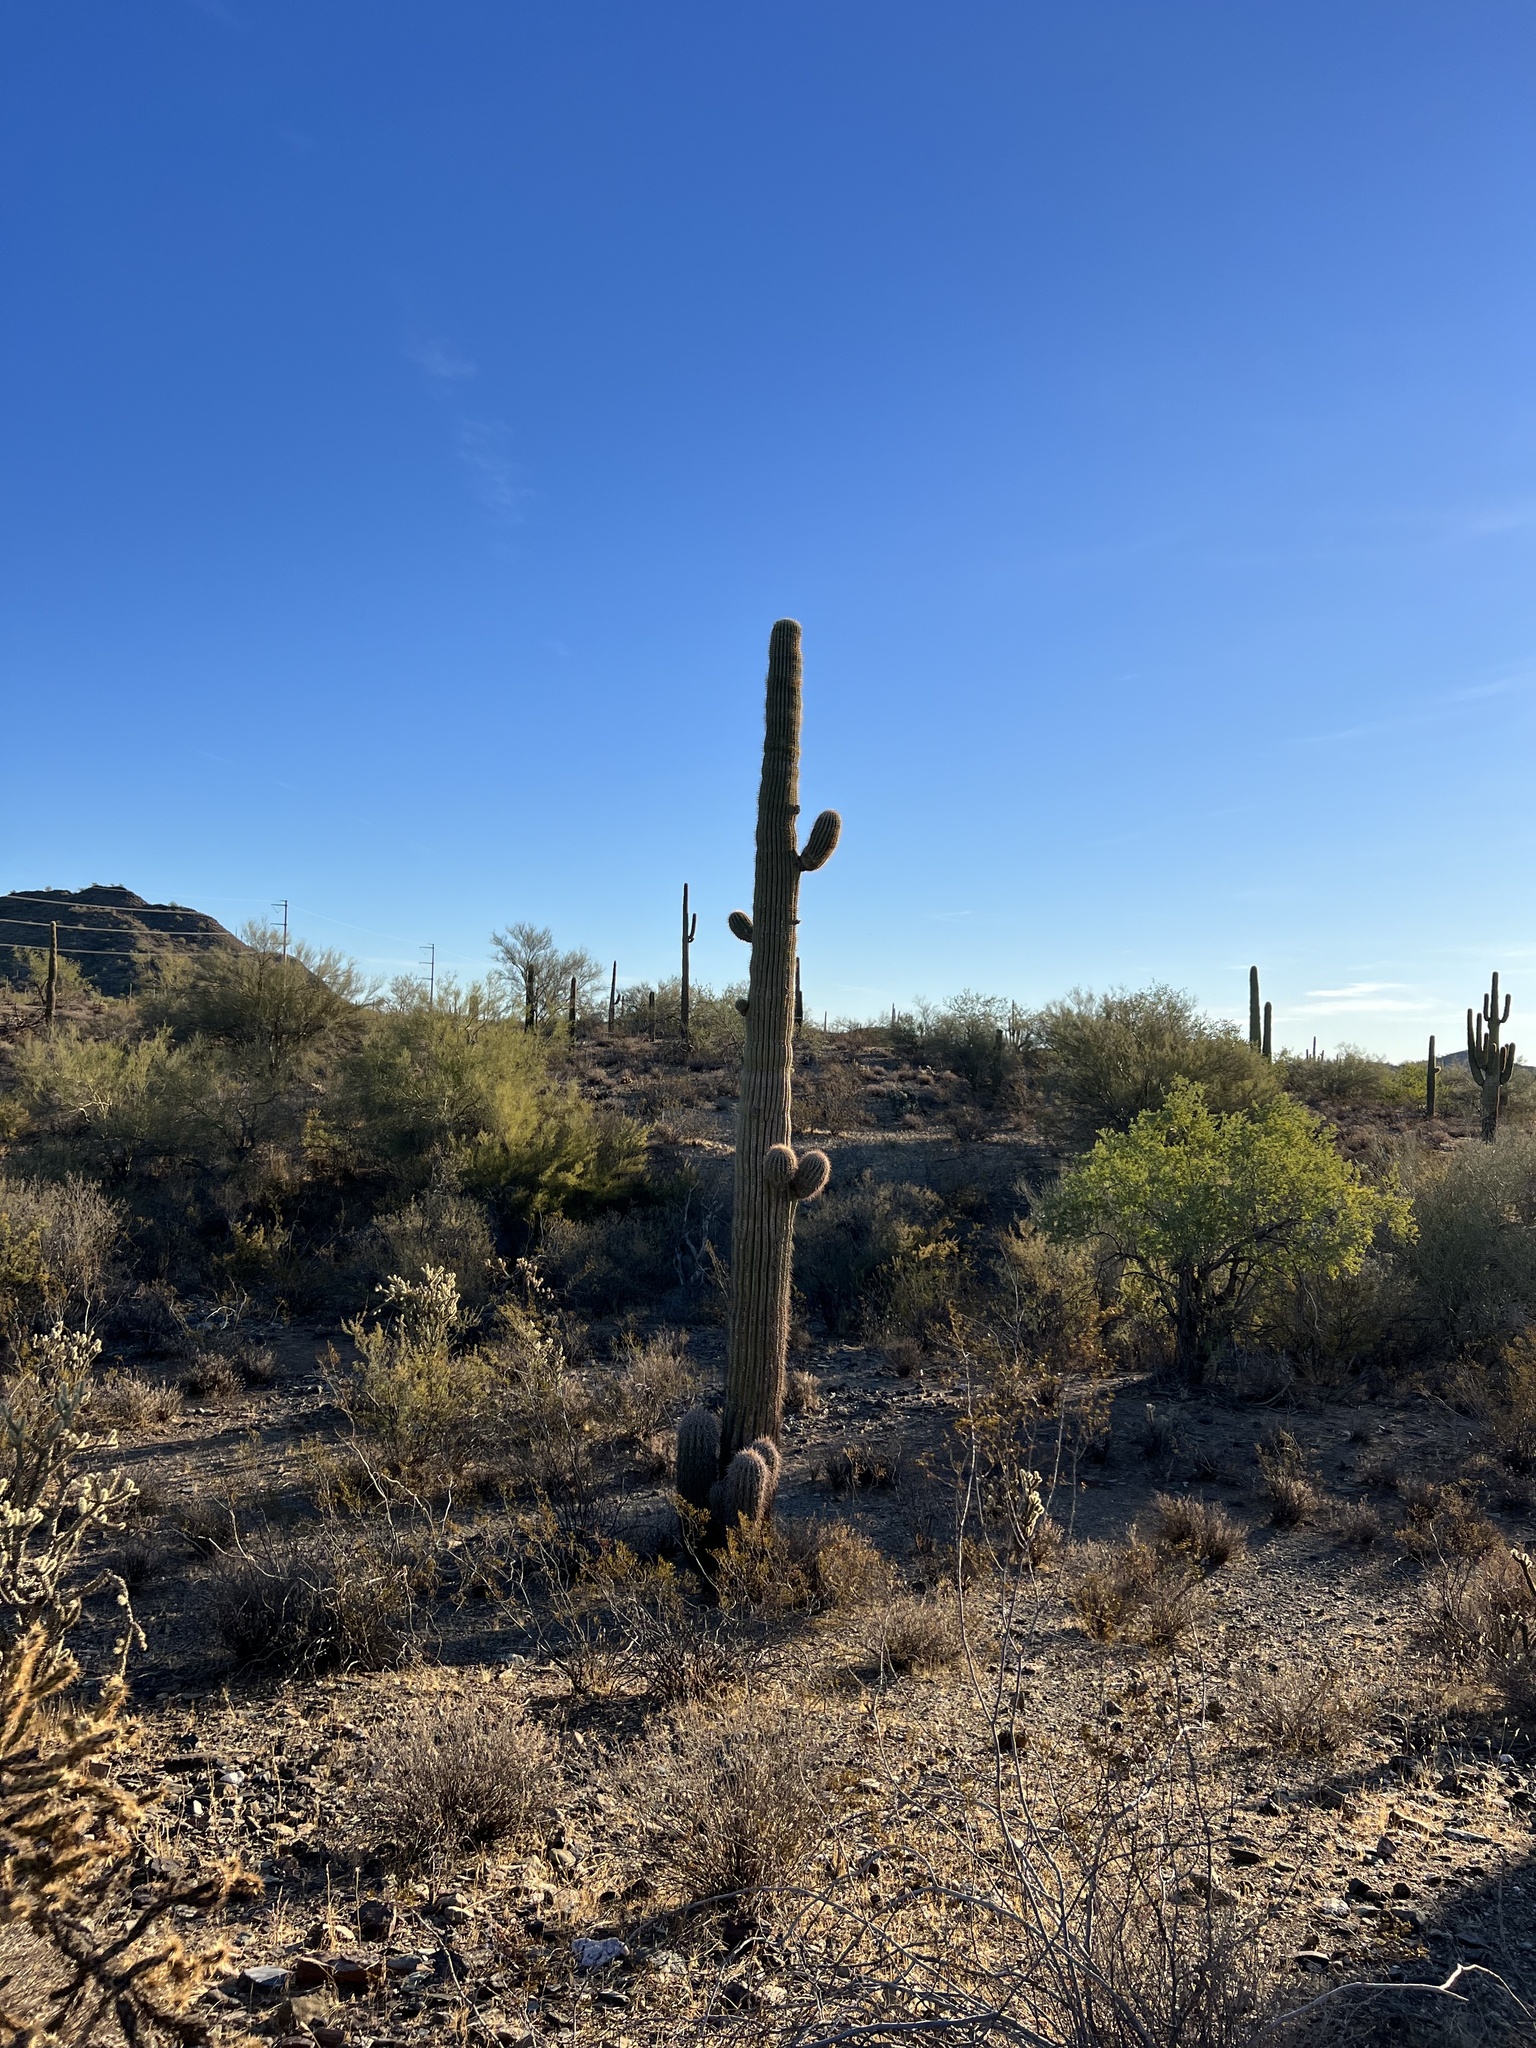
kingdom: Plantae
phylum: Tracheophyta
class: Magnoliopsida
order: Caryophyllales
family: Cactaceae
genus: Carnegiea
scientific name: Carnegiea gigantea
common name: Saguaro
